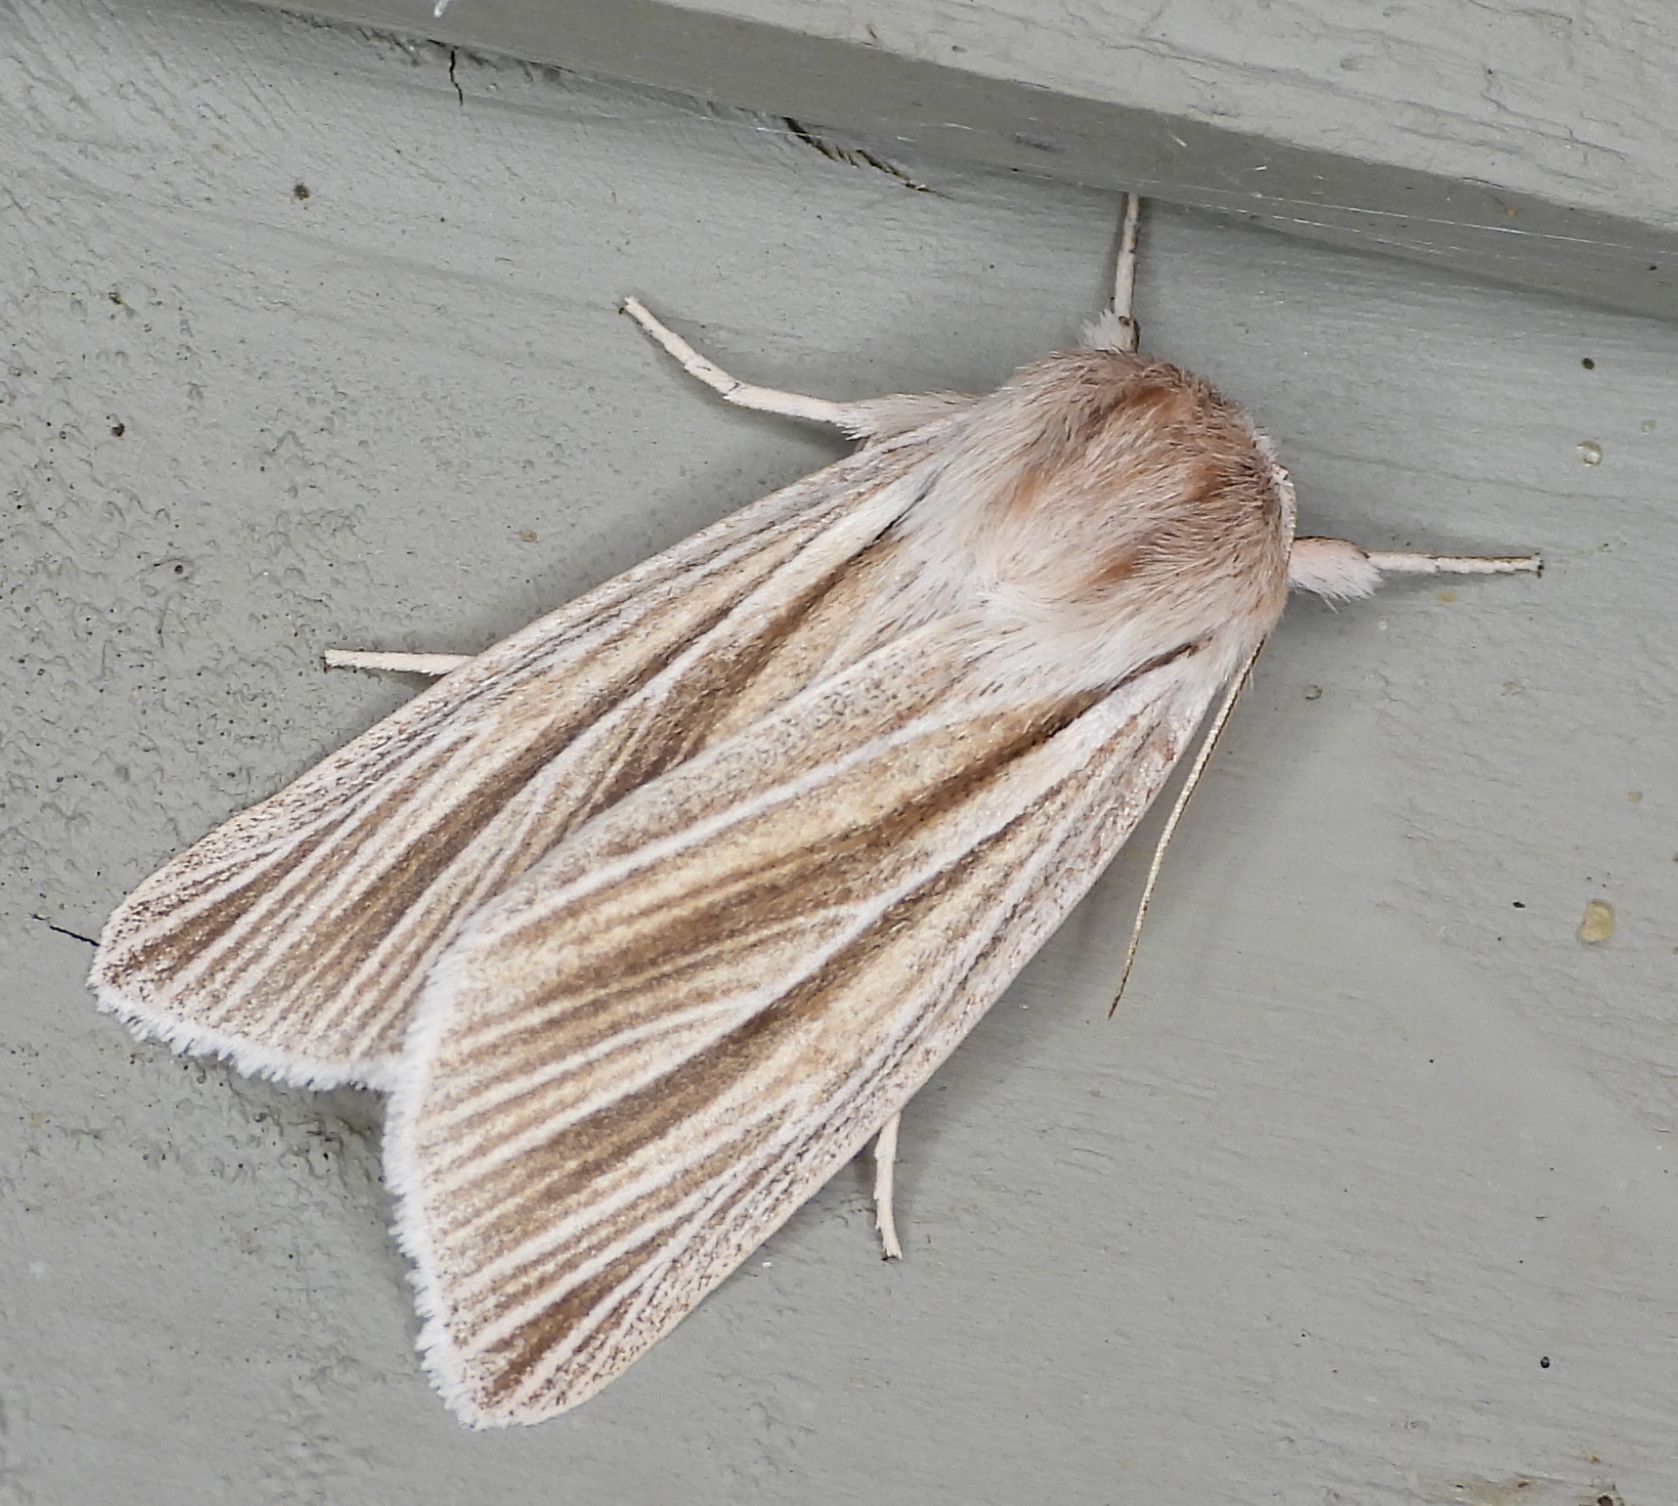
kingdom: Animalia
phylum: Arthropoda
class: Insecta
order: Lepidoptera
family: Noctuidae
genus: Acronicta
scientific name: Acronicta insularis
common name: Henry's marsh moth
